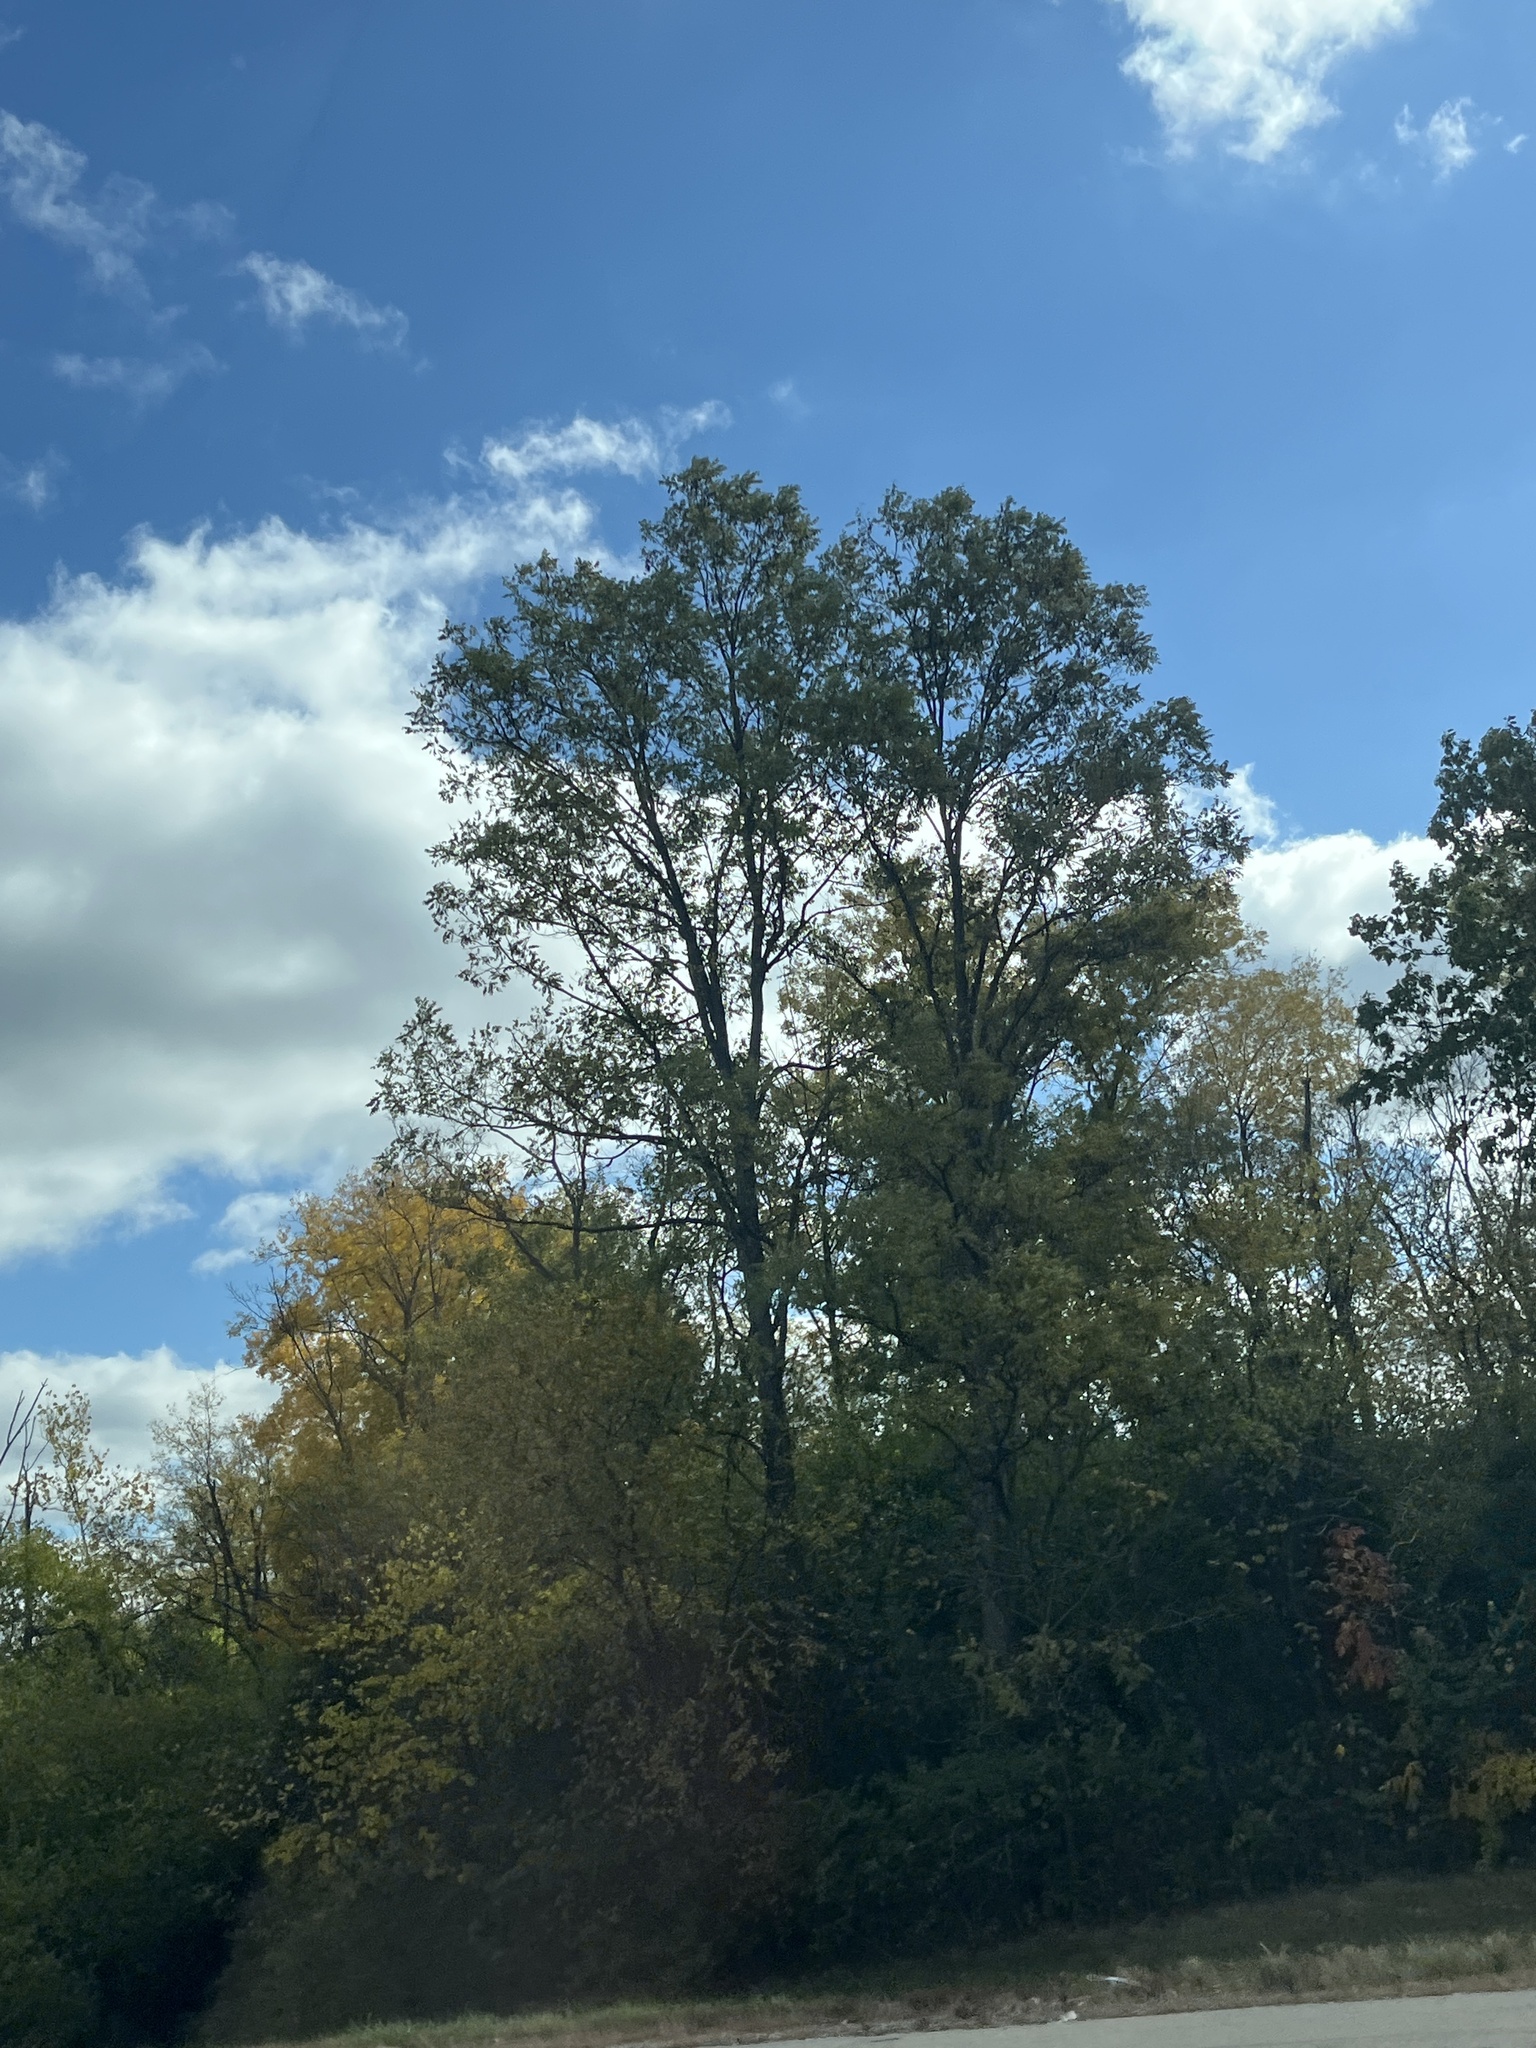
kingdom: Plantae
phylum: Tracheophyta
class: Magnoliopsida
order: Malpighiales
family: Salicaceae
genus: Populus
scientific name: Populus deltoides
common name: Eastern cottonwood
